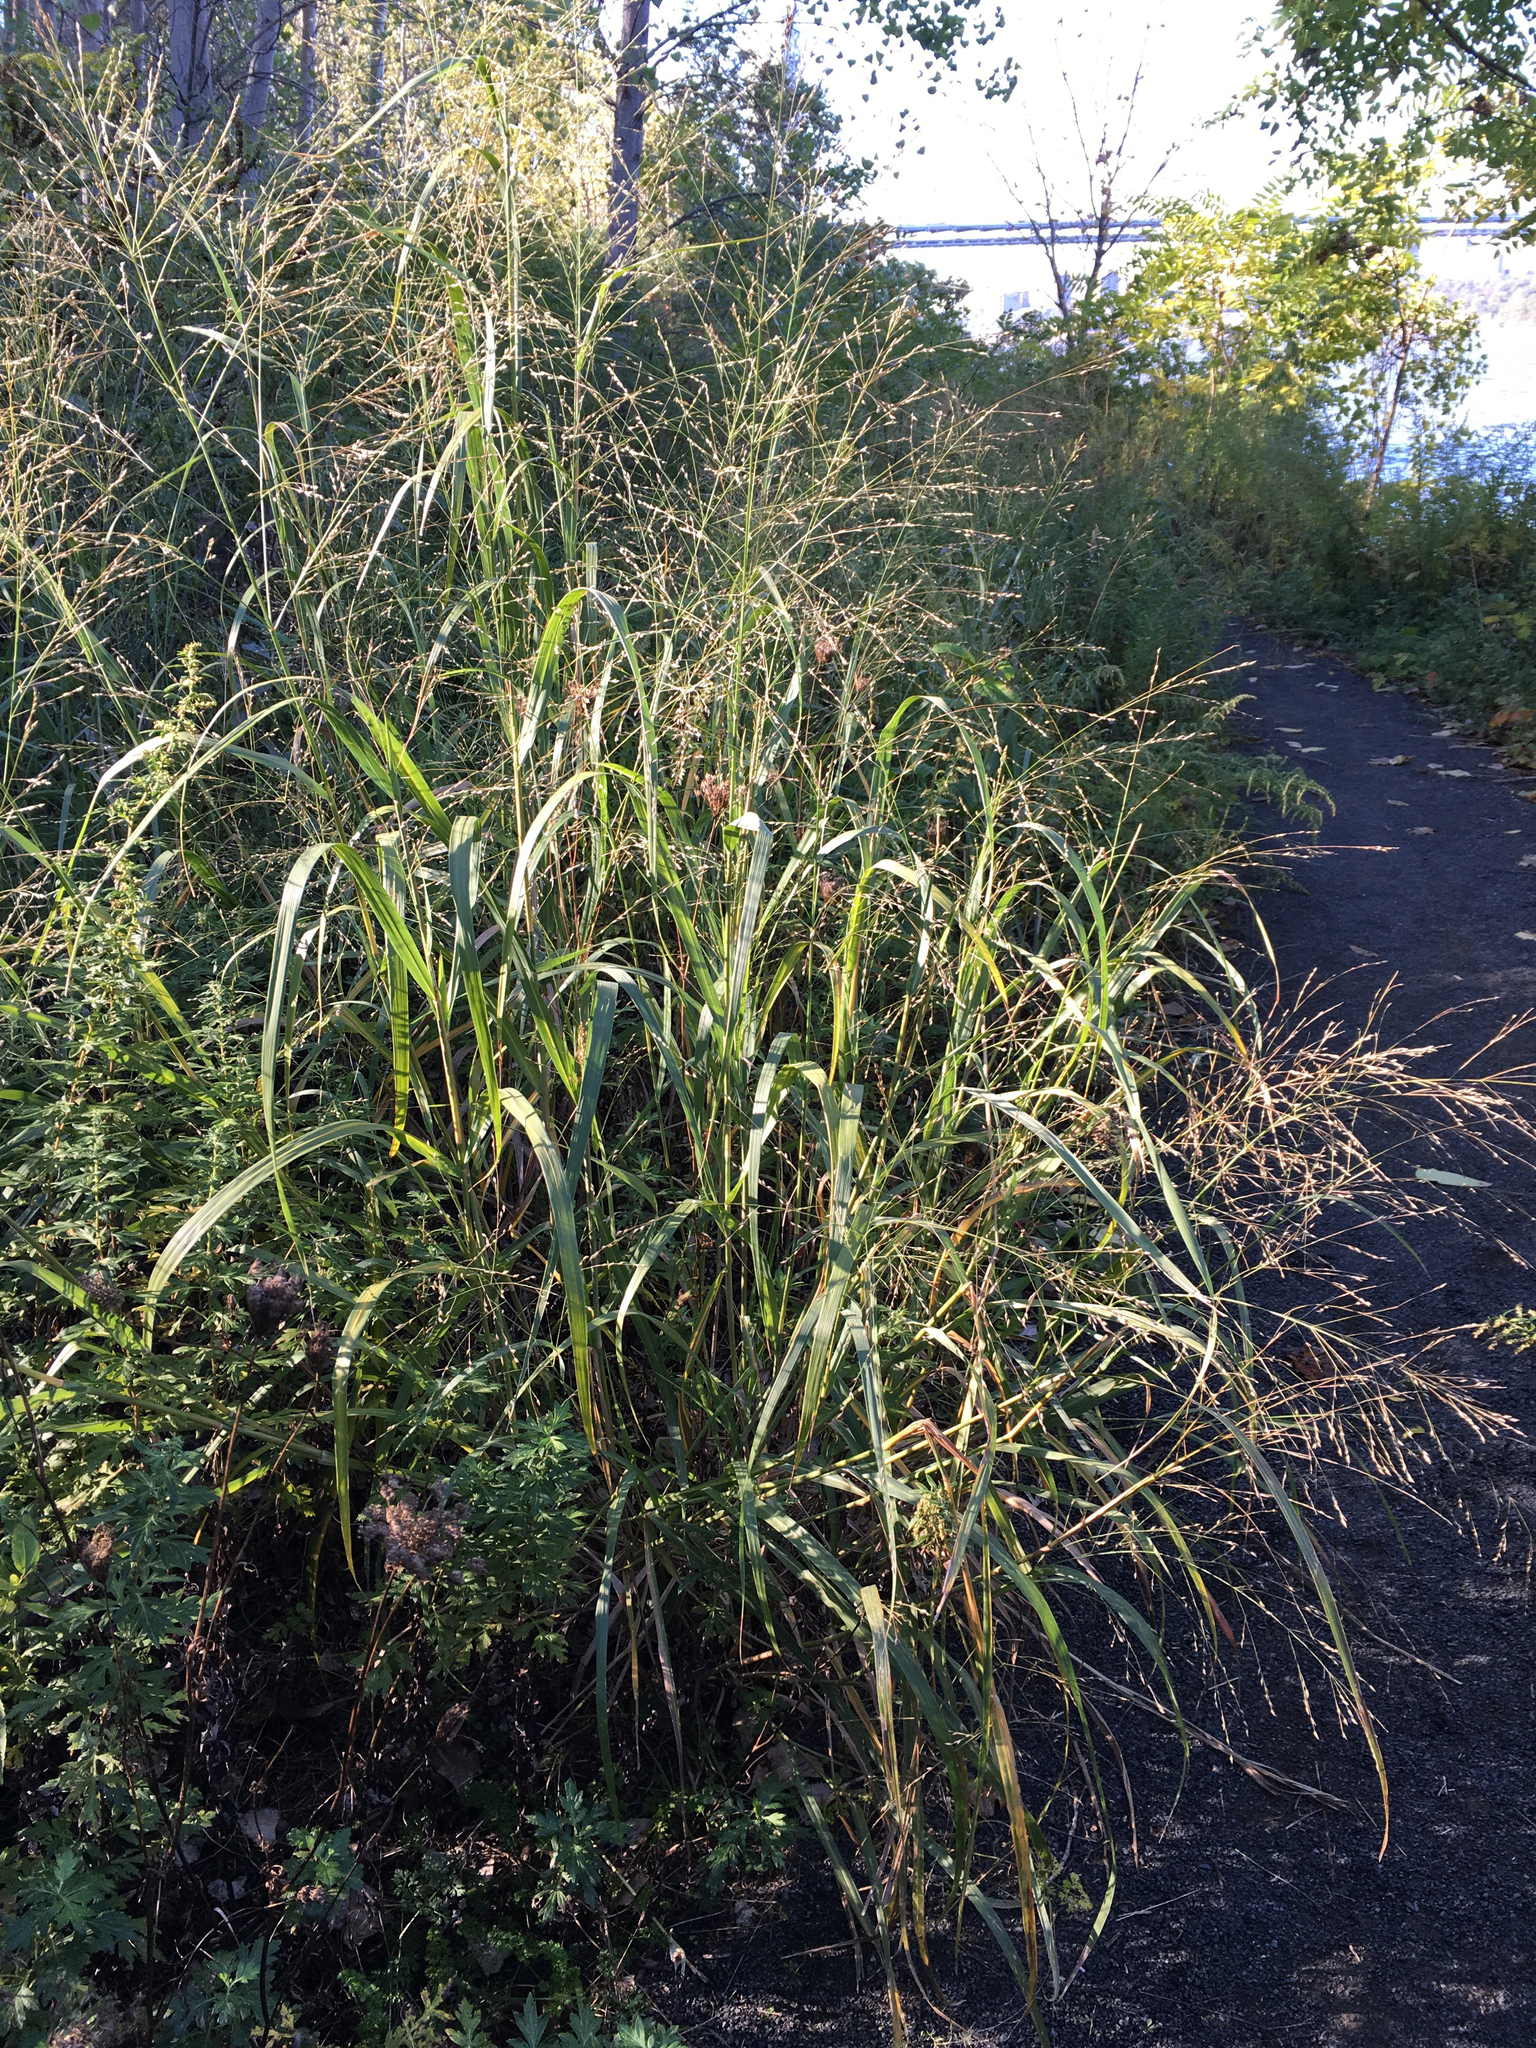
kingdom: Plantae
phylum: Tracheophyta
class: Liliopsida
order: Poales
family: Poaceae
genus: Panicum
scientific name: Panicum virgatum
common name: Switchgrass
